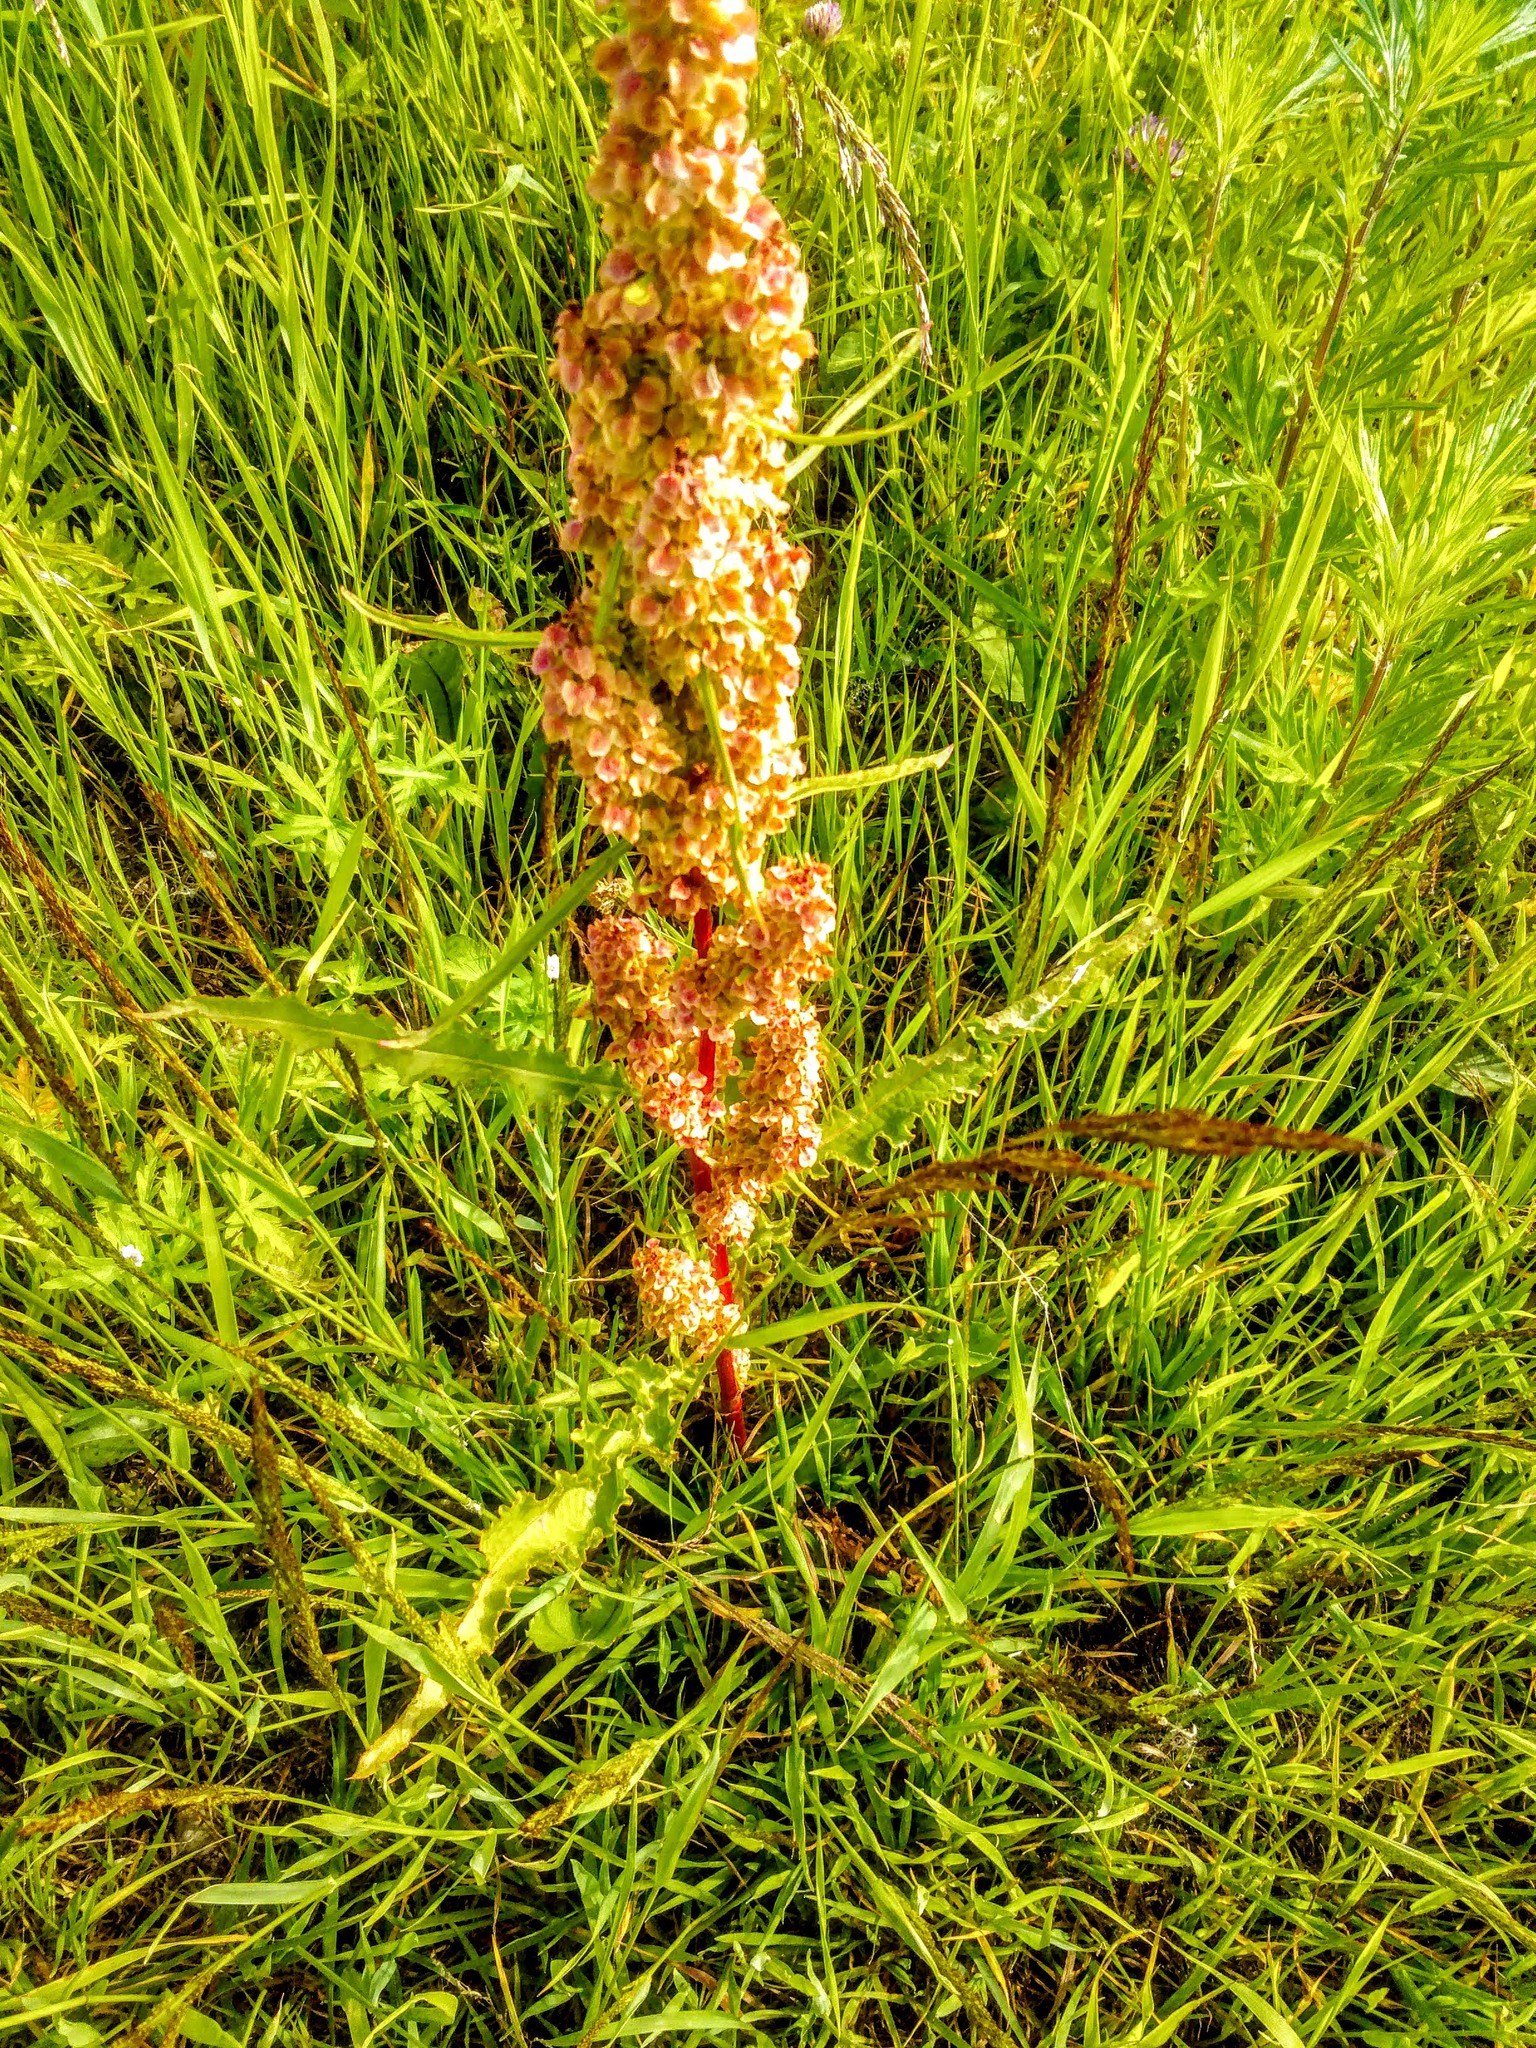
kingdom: Plantae
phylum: Tracheophyta
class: Magnoliopsida
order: Caryophyllales
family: Polygonaceae
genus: Rumex
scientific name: Rumex pseudonatronatus
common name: Field dock
